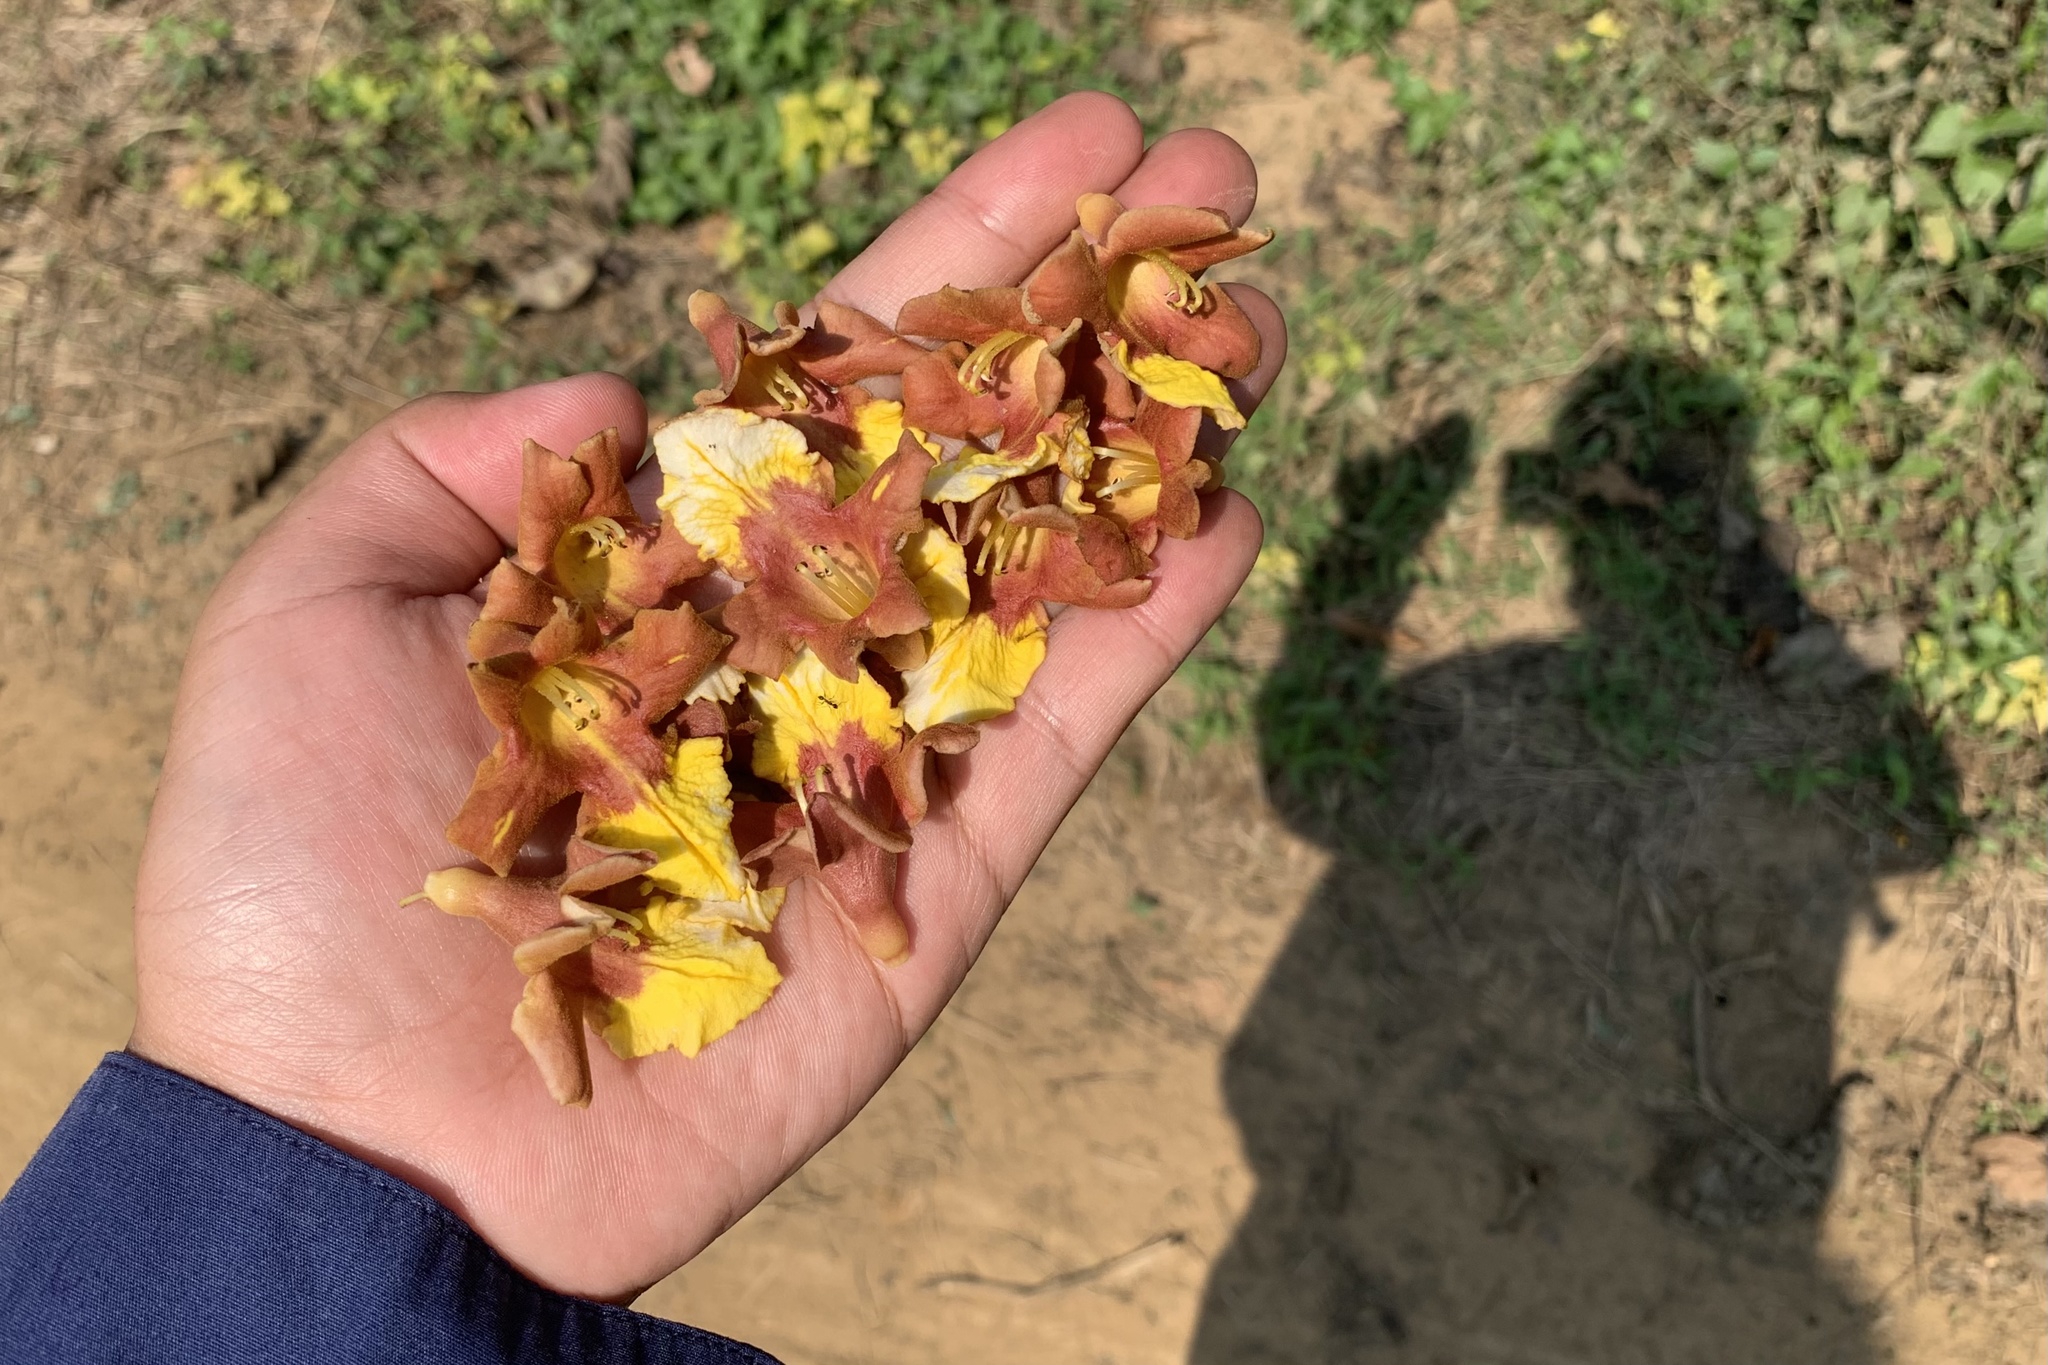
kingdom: Plantae
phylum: Tracheophyta
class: Magnoliopsida
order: Lamiales
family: Lamiaceae
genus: Gmelina
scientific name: Gmelina arborea
